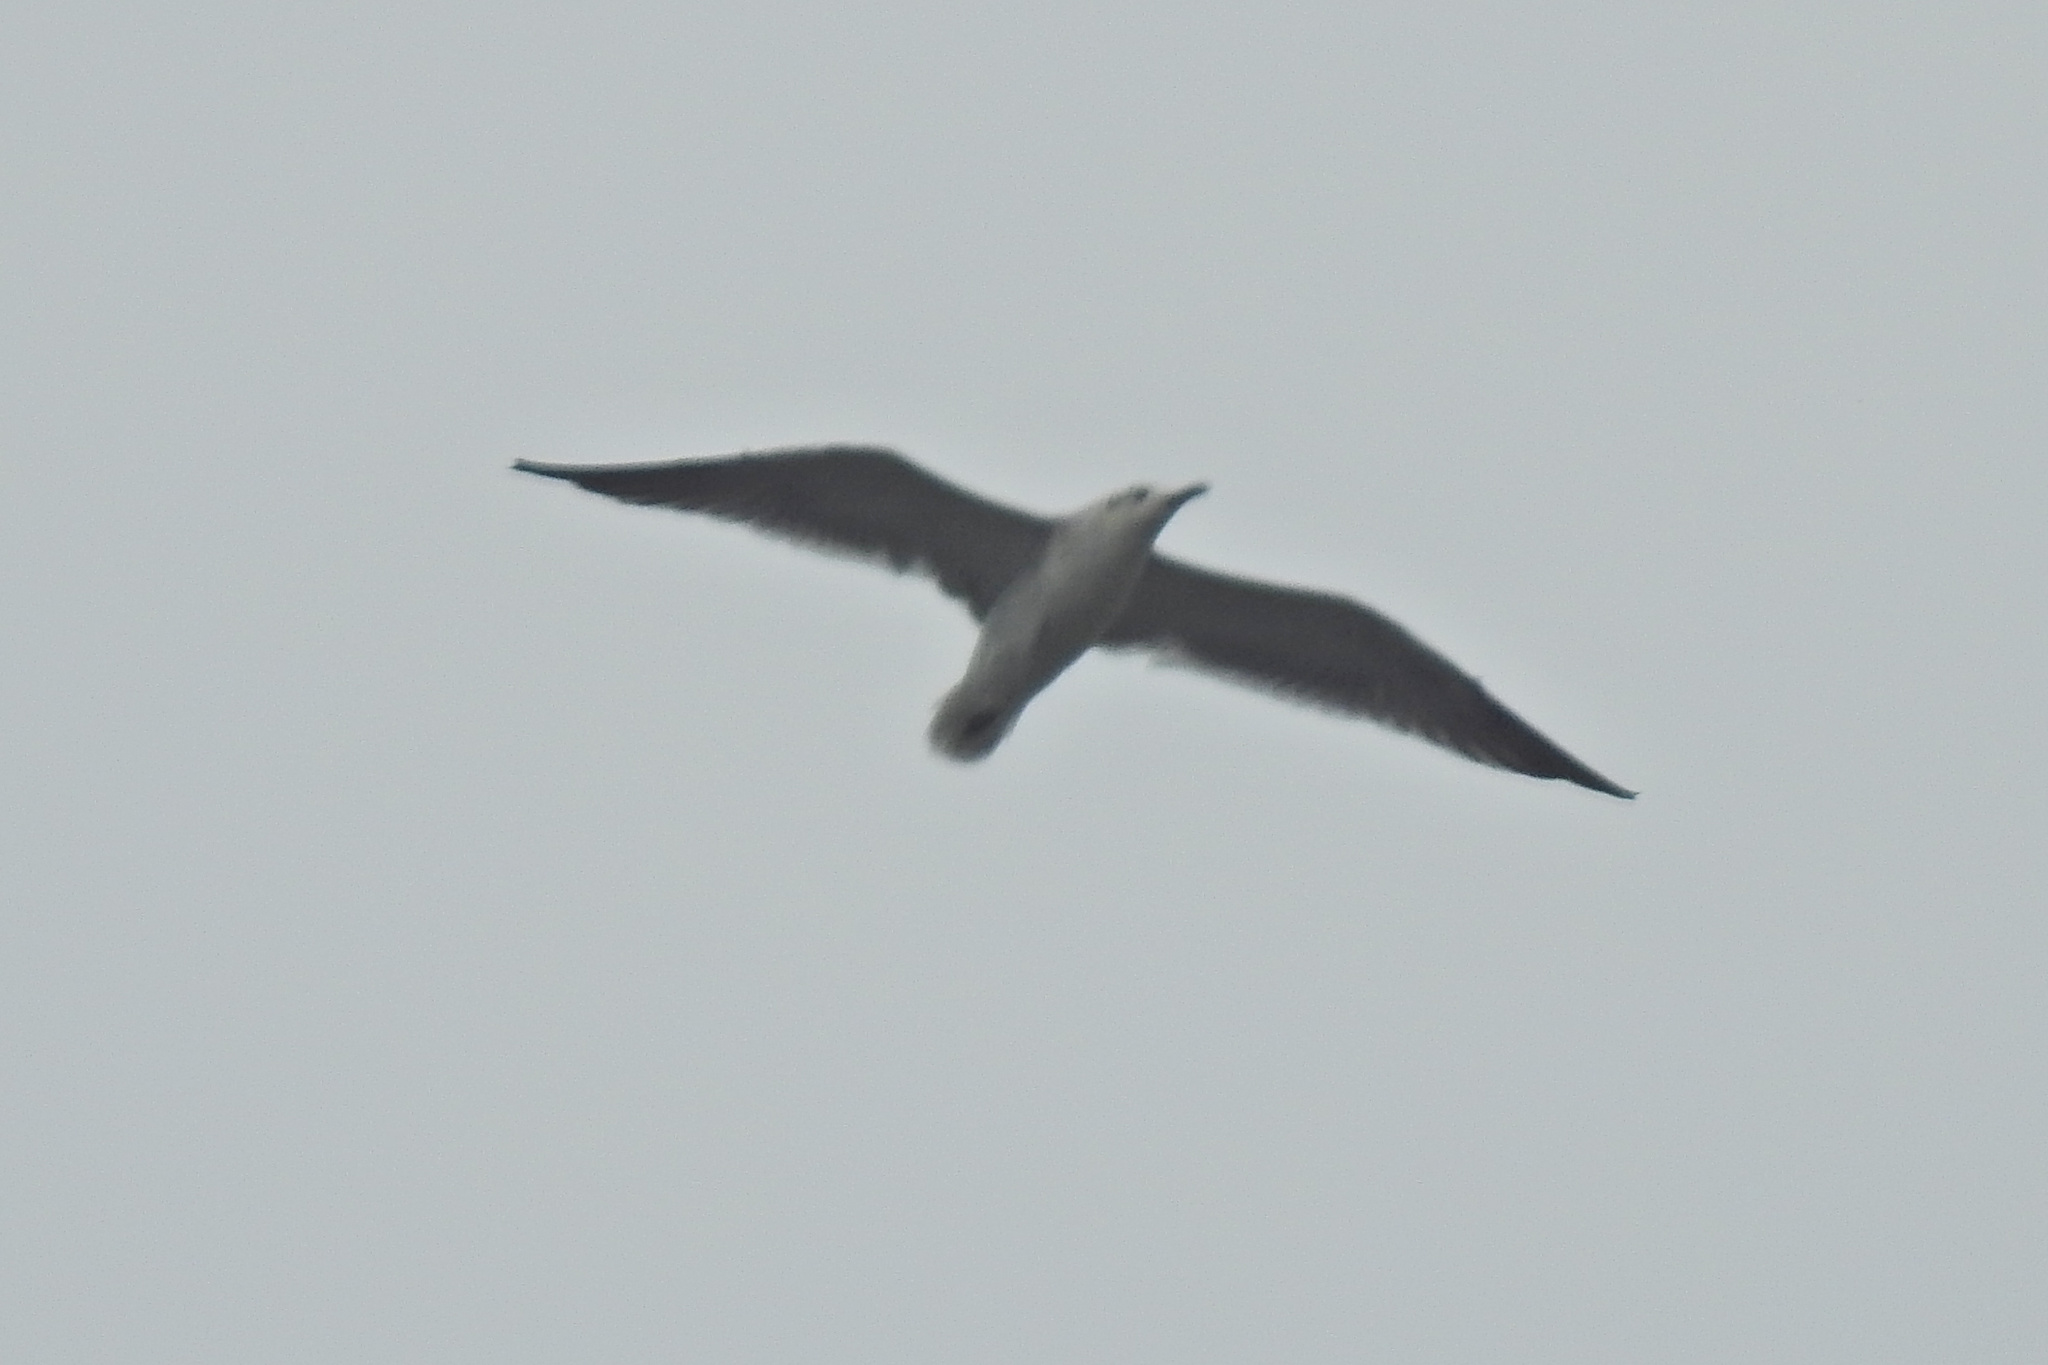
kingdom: Animalia
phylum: Chordata
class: Aves
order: Charadriiformes
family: Laridae
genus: Leucophaeus
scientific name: Leucophaeus atricilla
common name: Laughing gull
